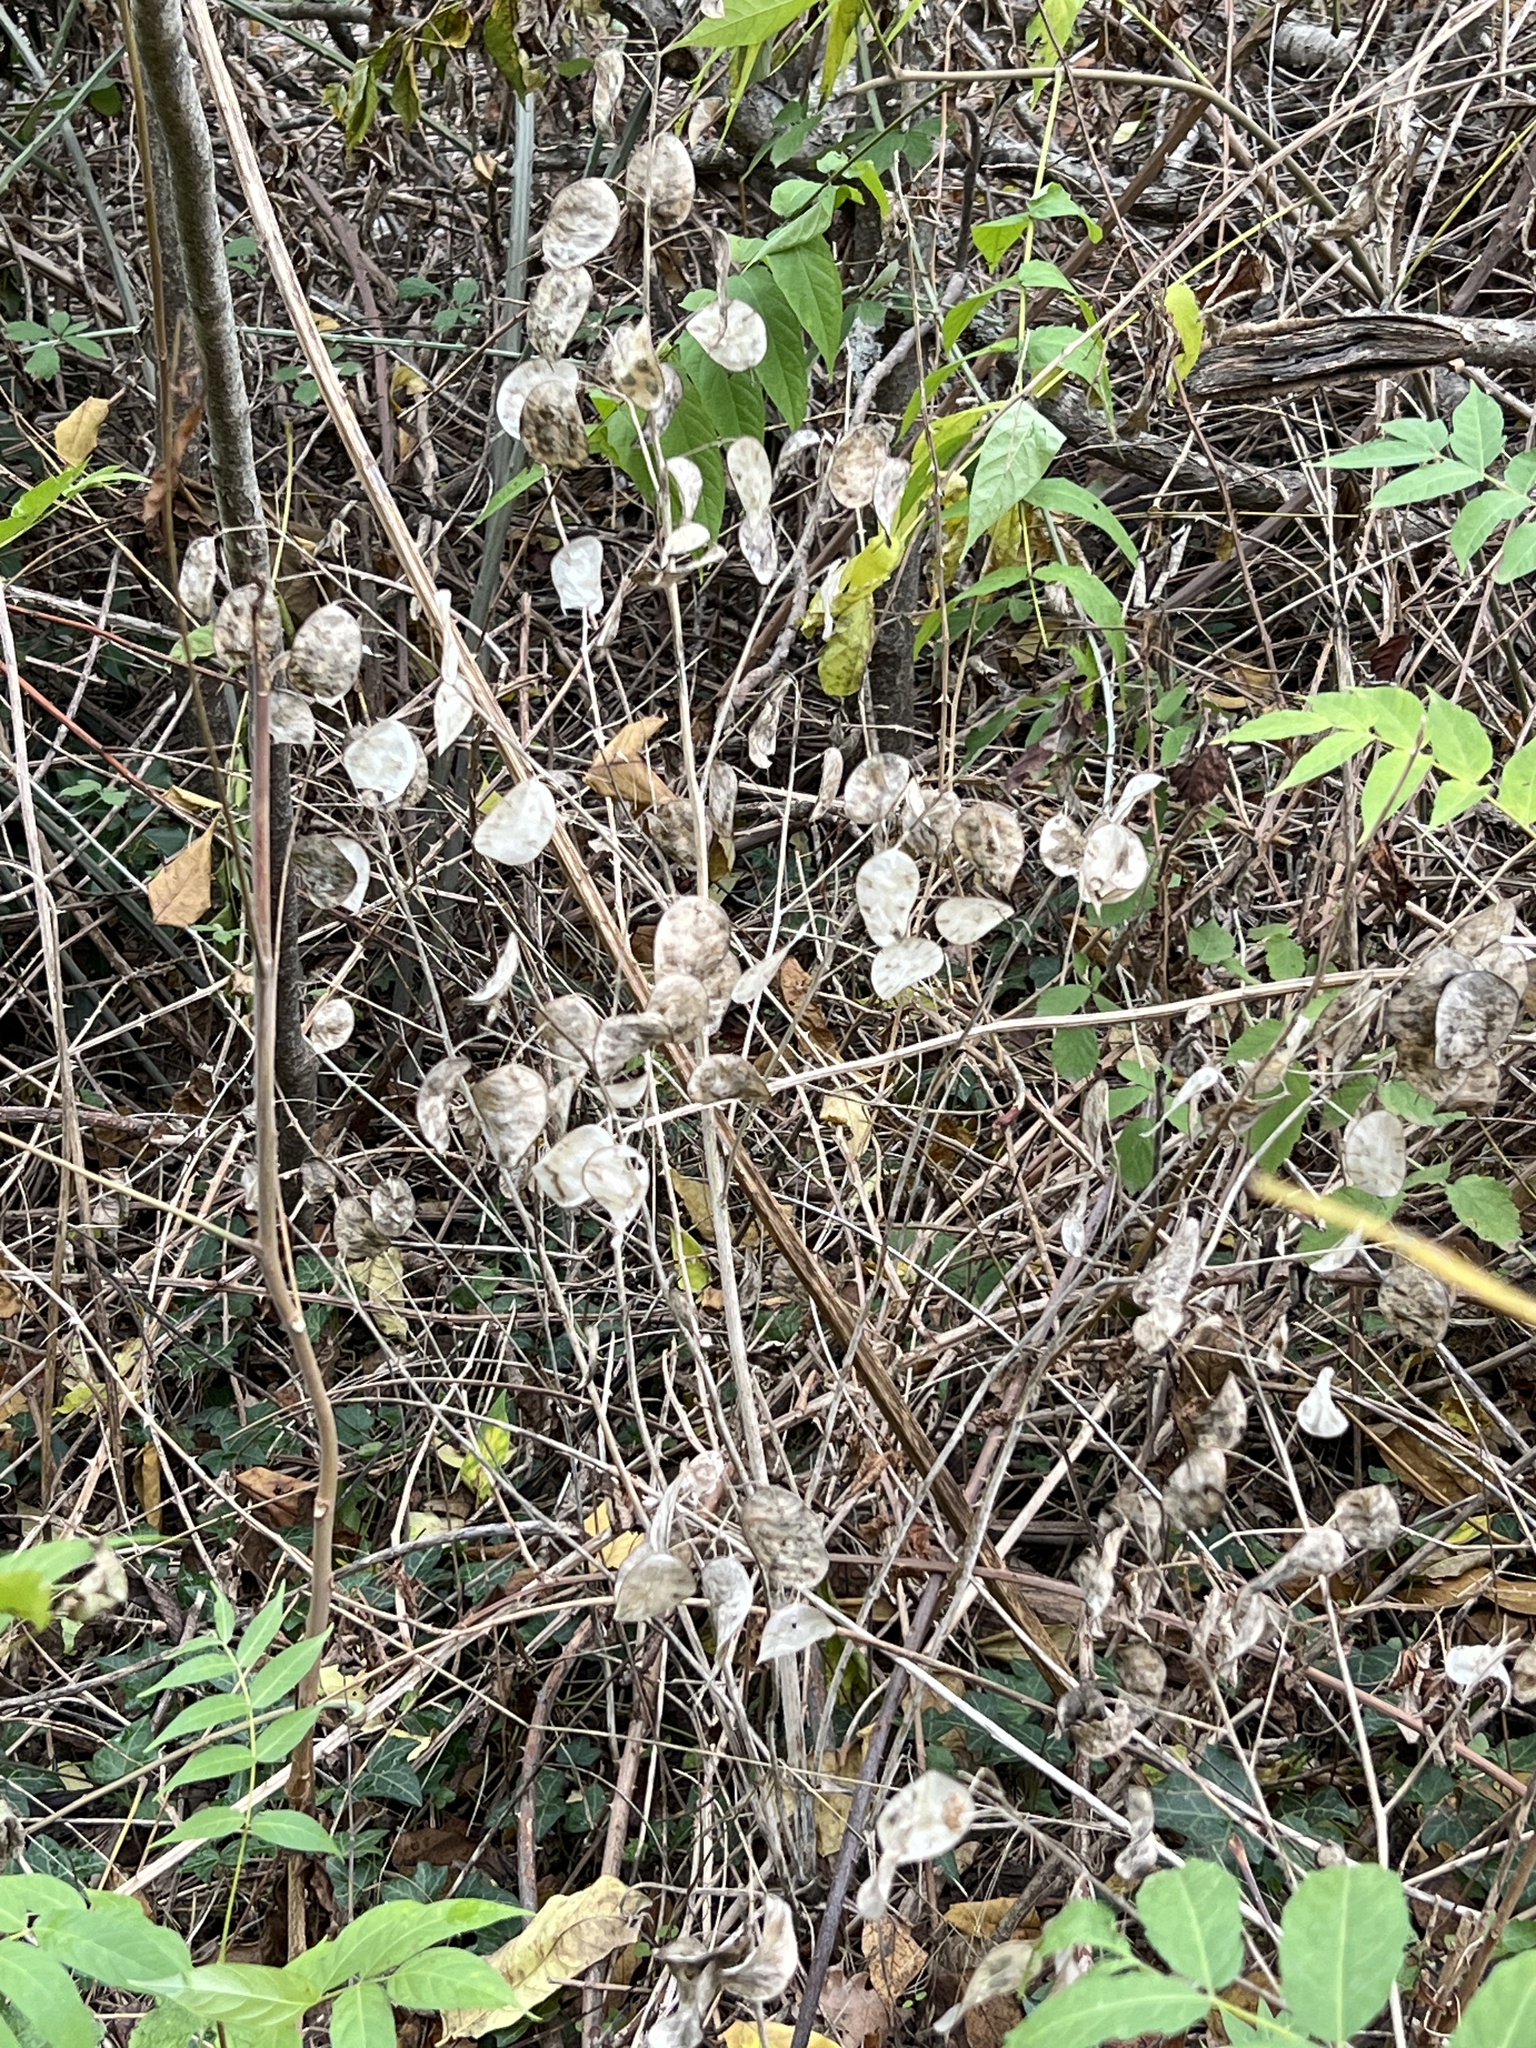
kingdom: Plantae
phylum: Tracheophyta
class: Magnoliopsida
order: Brassicales
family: Brassicaceae
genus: Lunaria
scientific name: Lunaria annua
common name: Honesty
